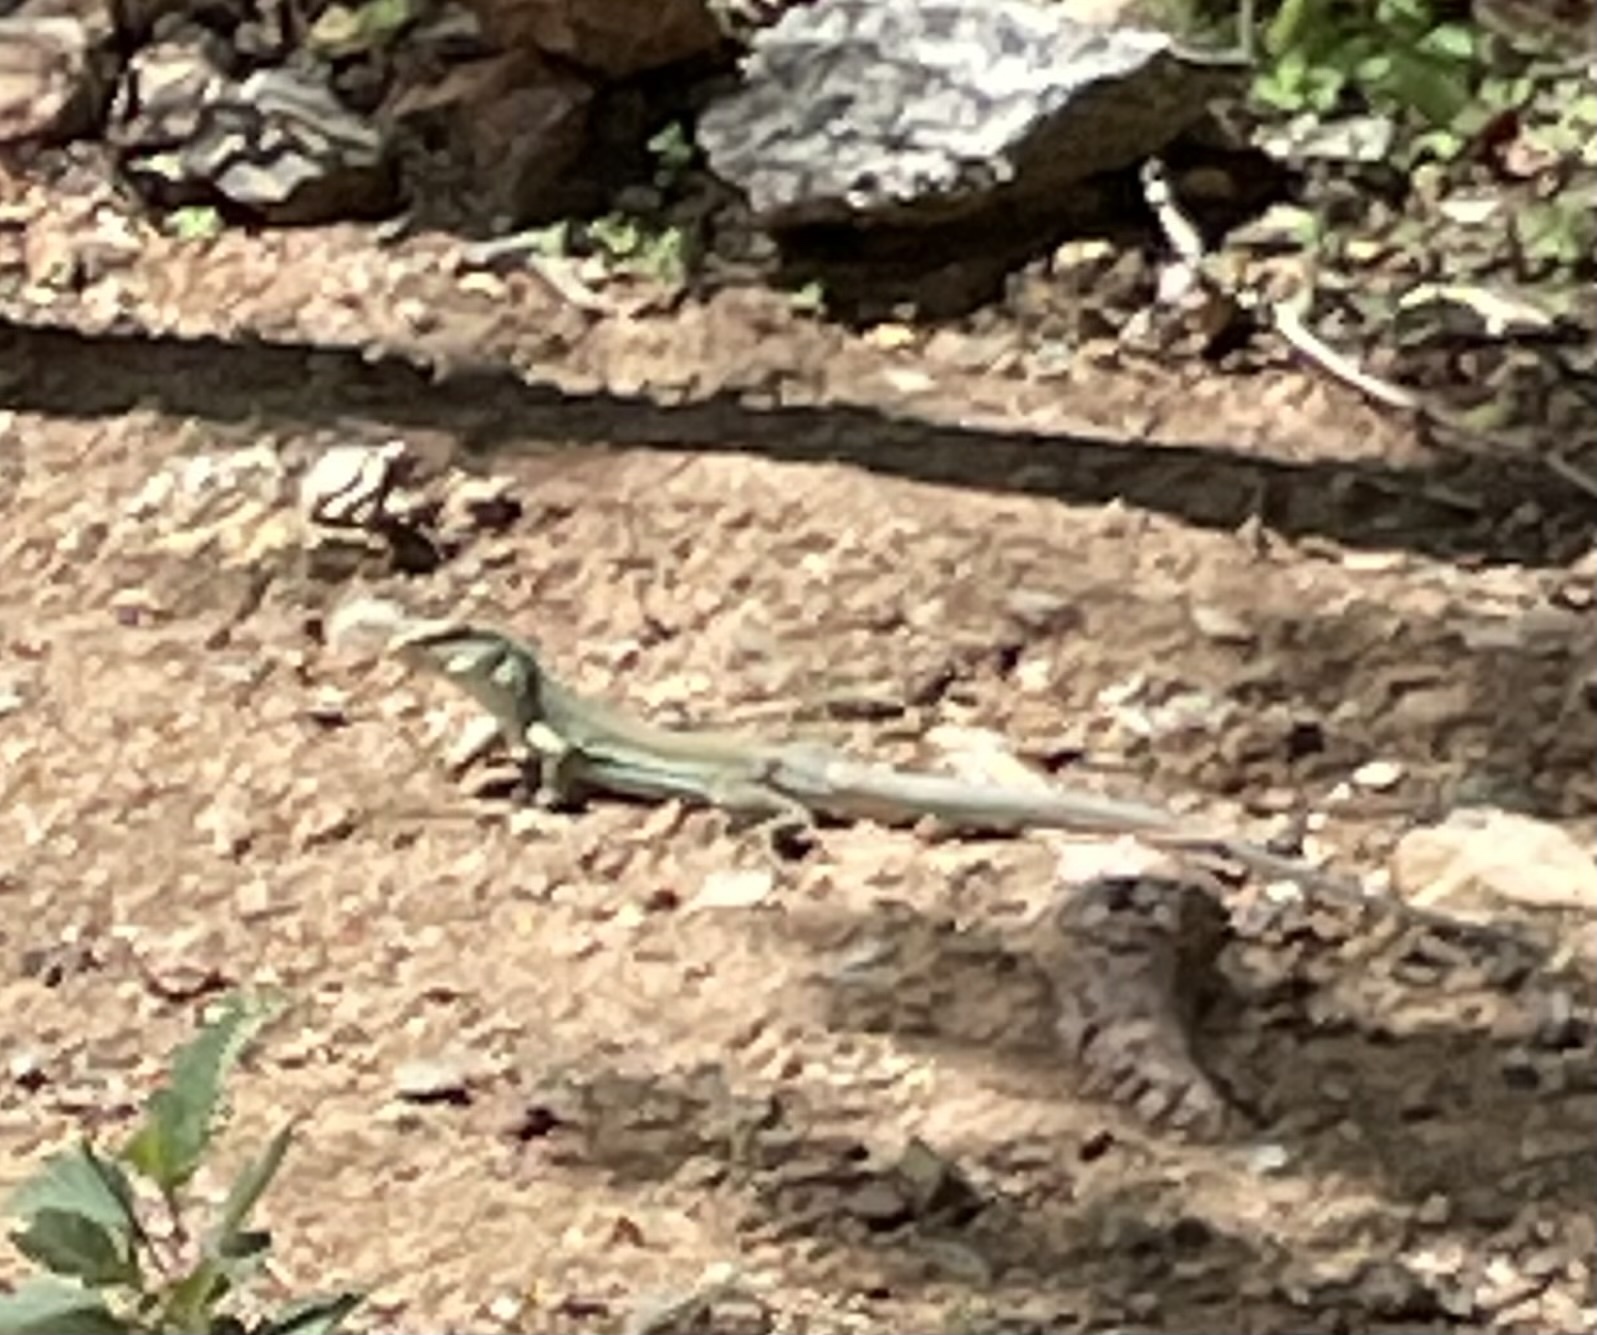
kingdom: Animalia
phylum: Chordata
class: Squamata
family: Teiidae
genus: Ameiva
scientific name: Ameiva bifrontata
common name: Cope's ameiva
